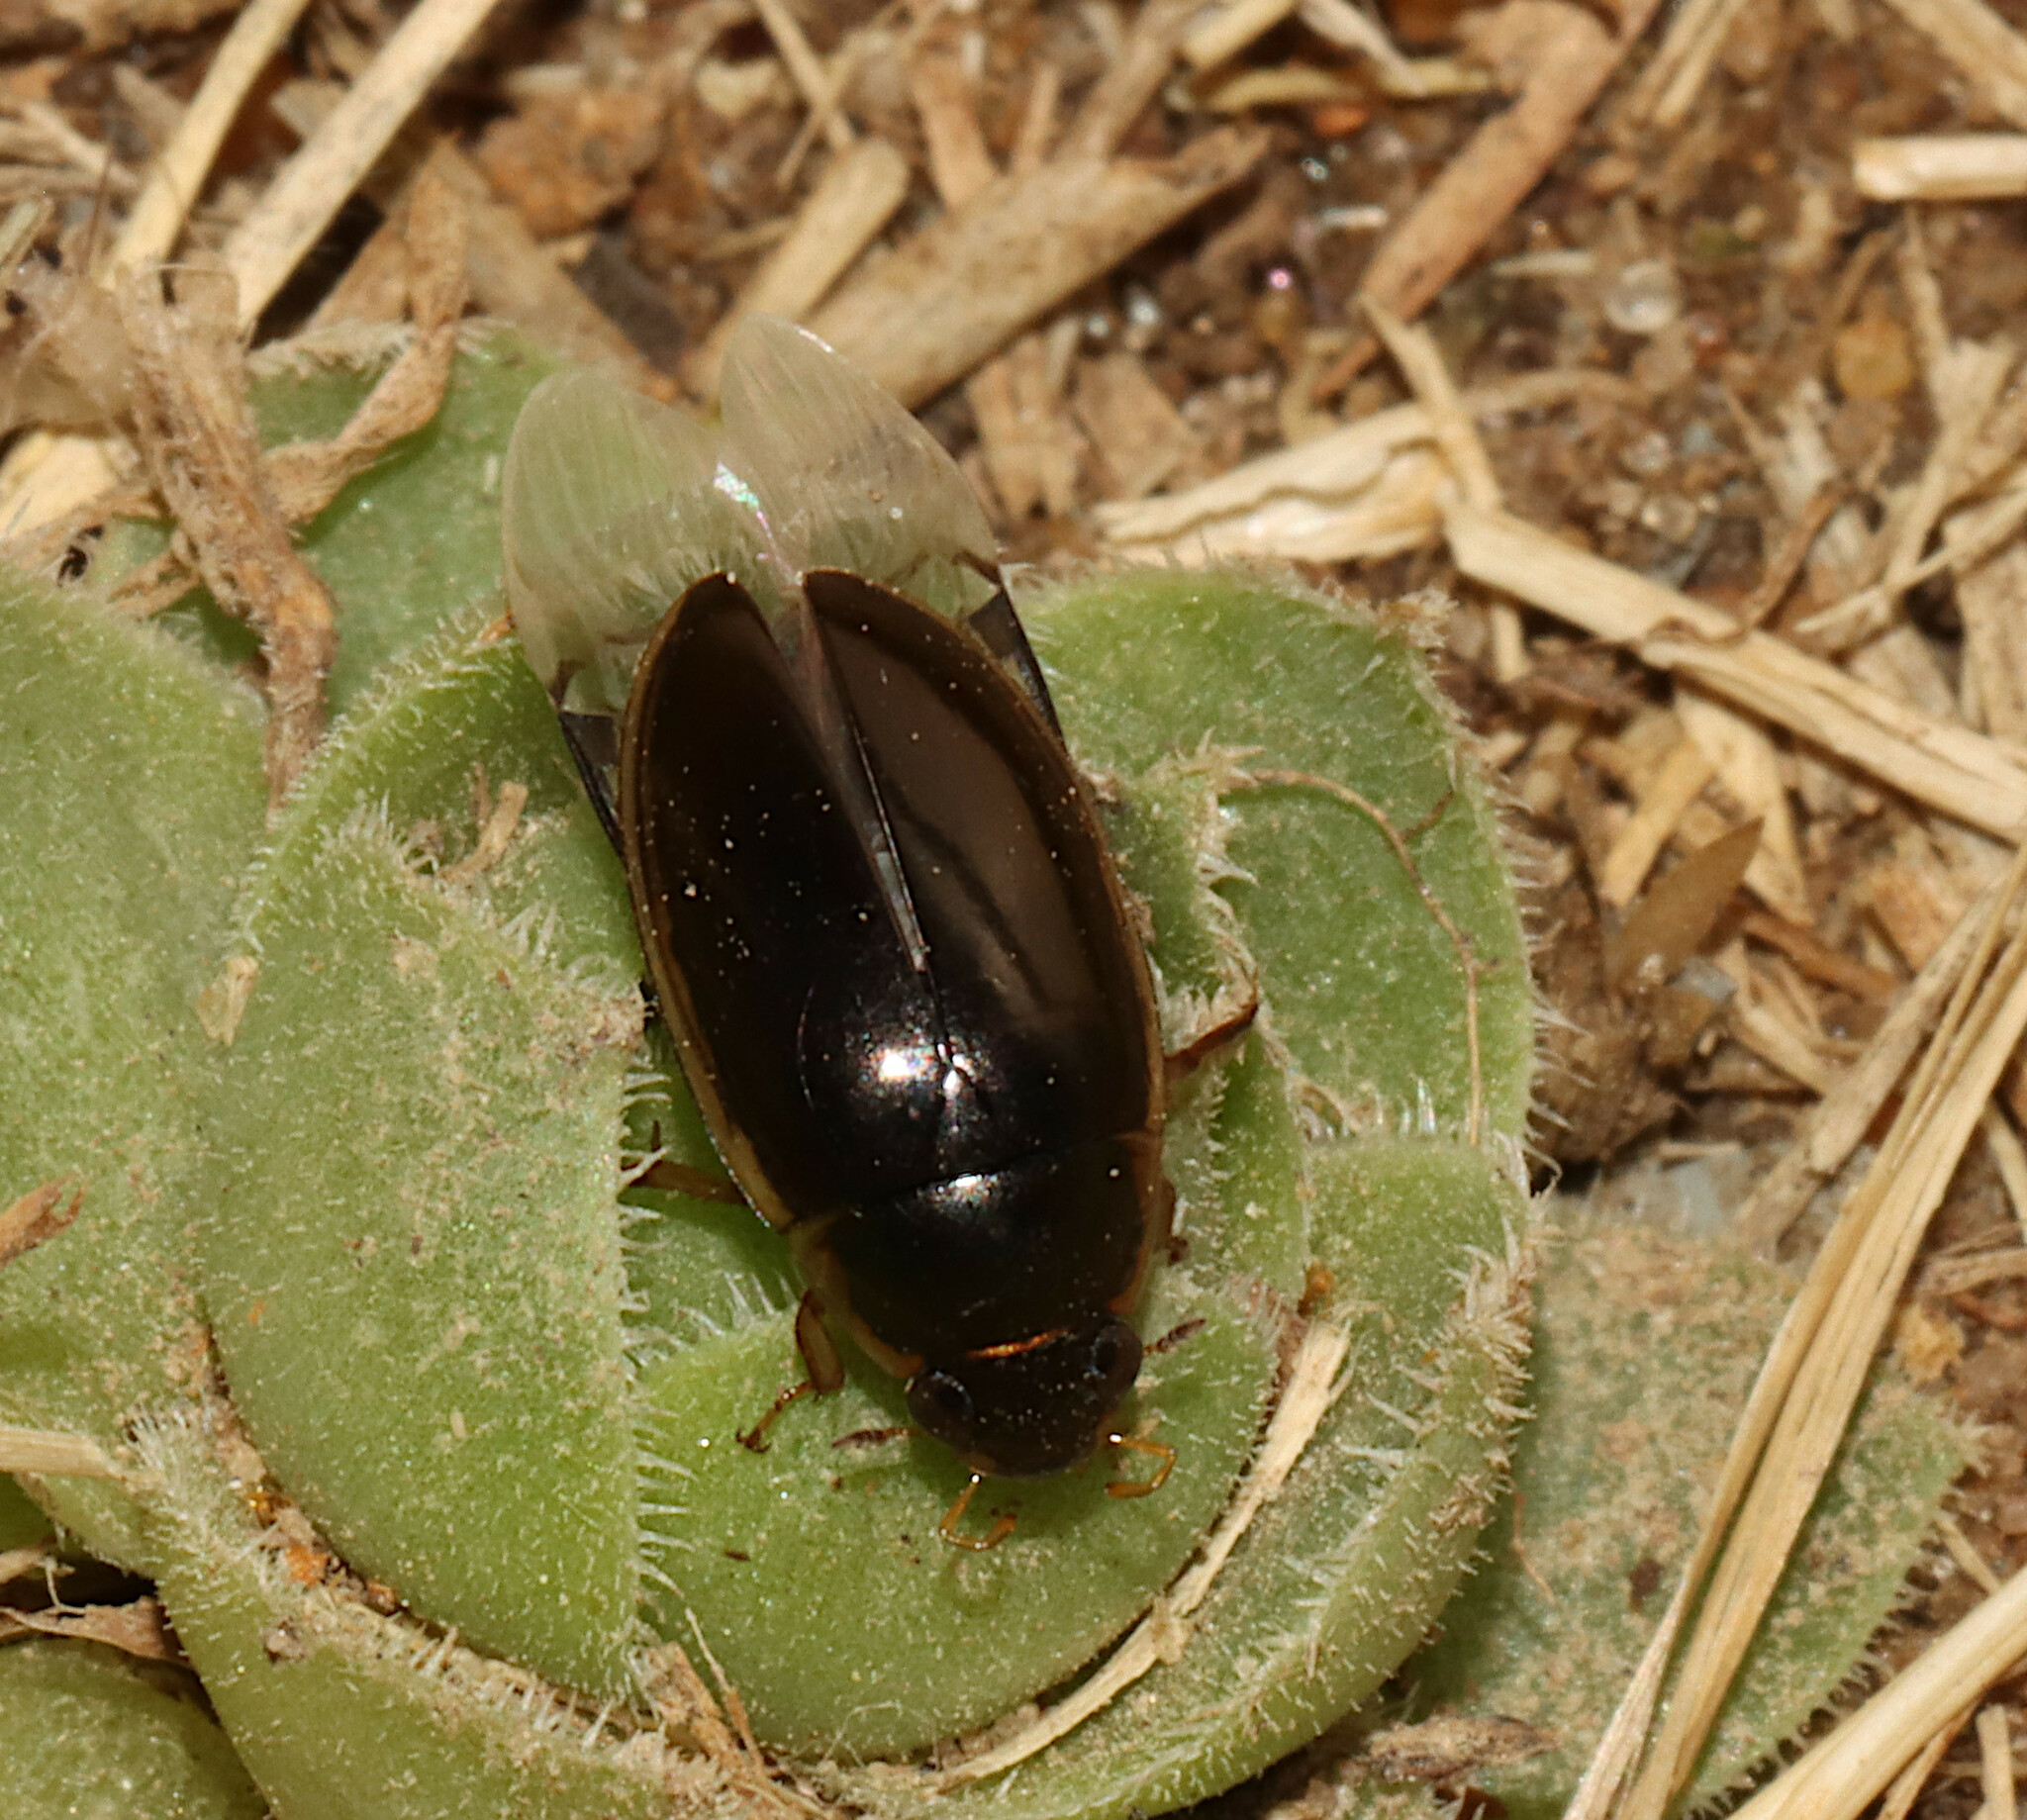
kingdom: Animalia
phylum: Arthropoda
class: Insecta
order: Coleoptera
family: Hydrophilidae
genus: Tropisternus
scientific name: Tropisternus lateralis
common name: Lateral-banded water scavenger beetle
